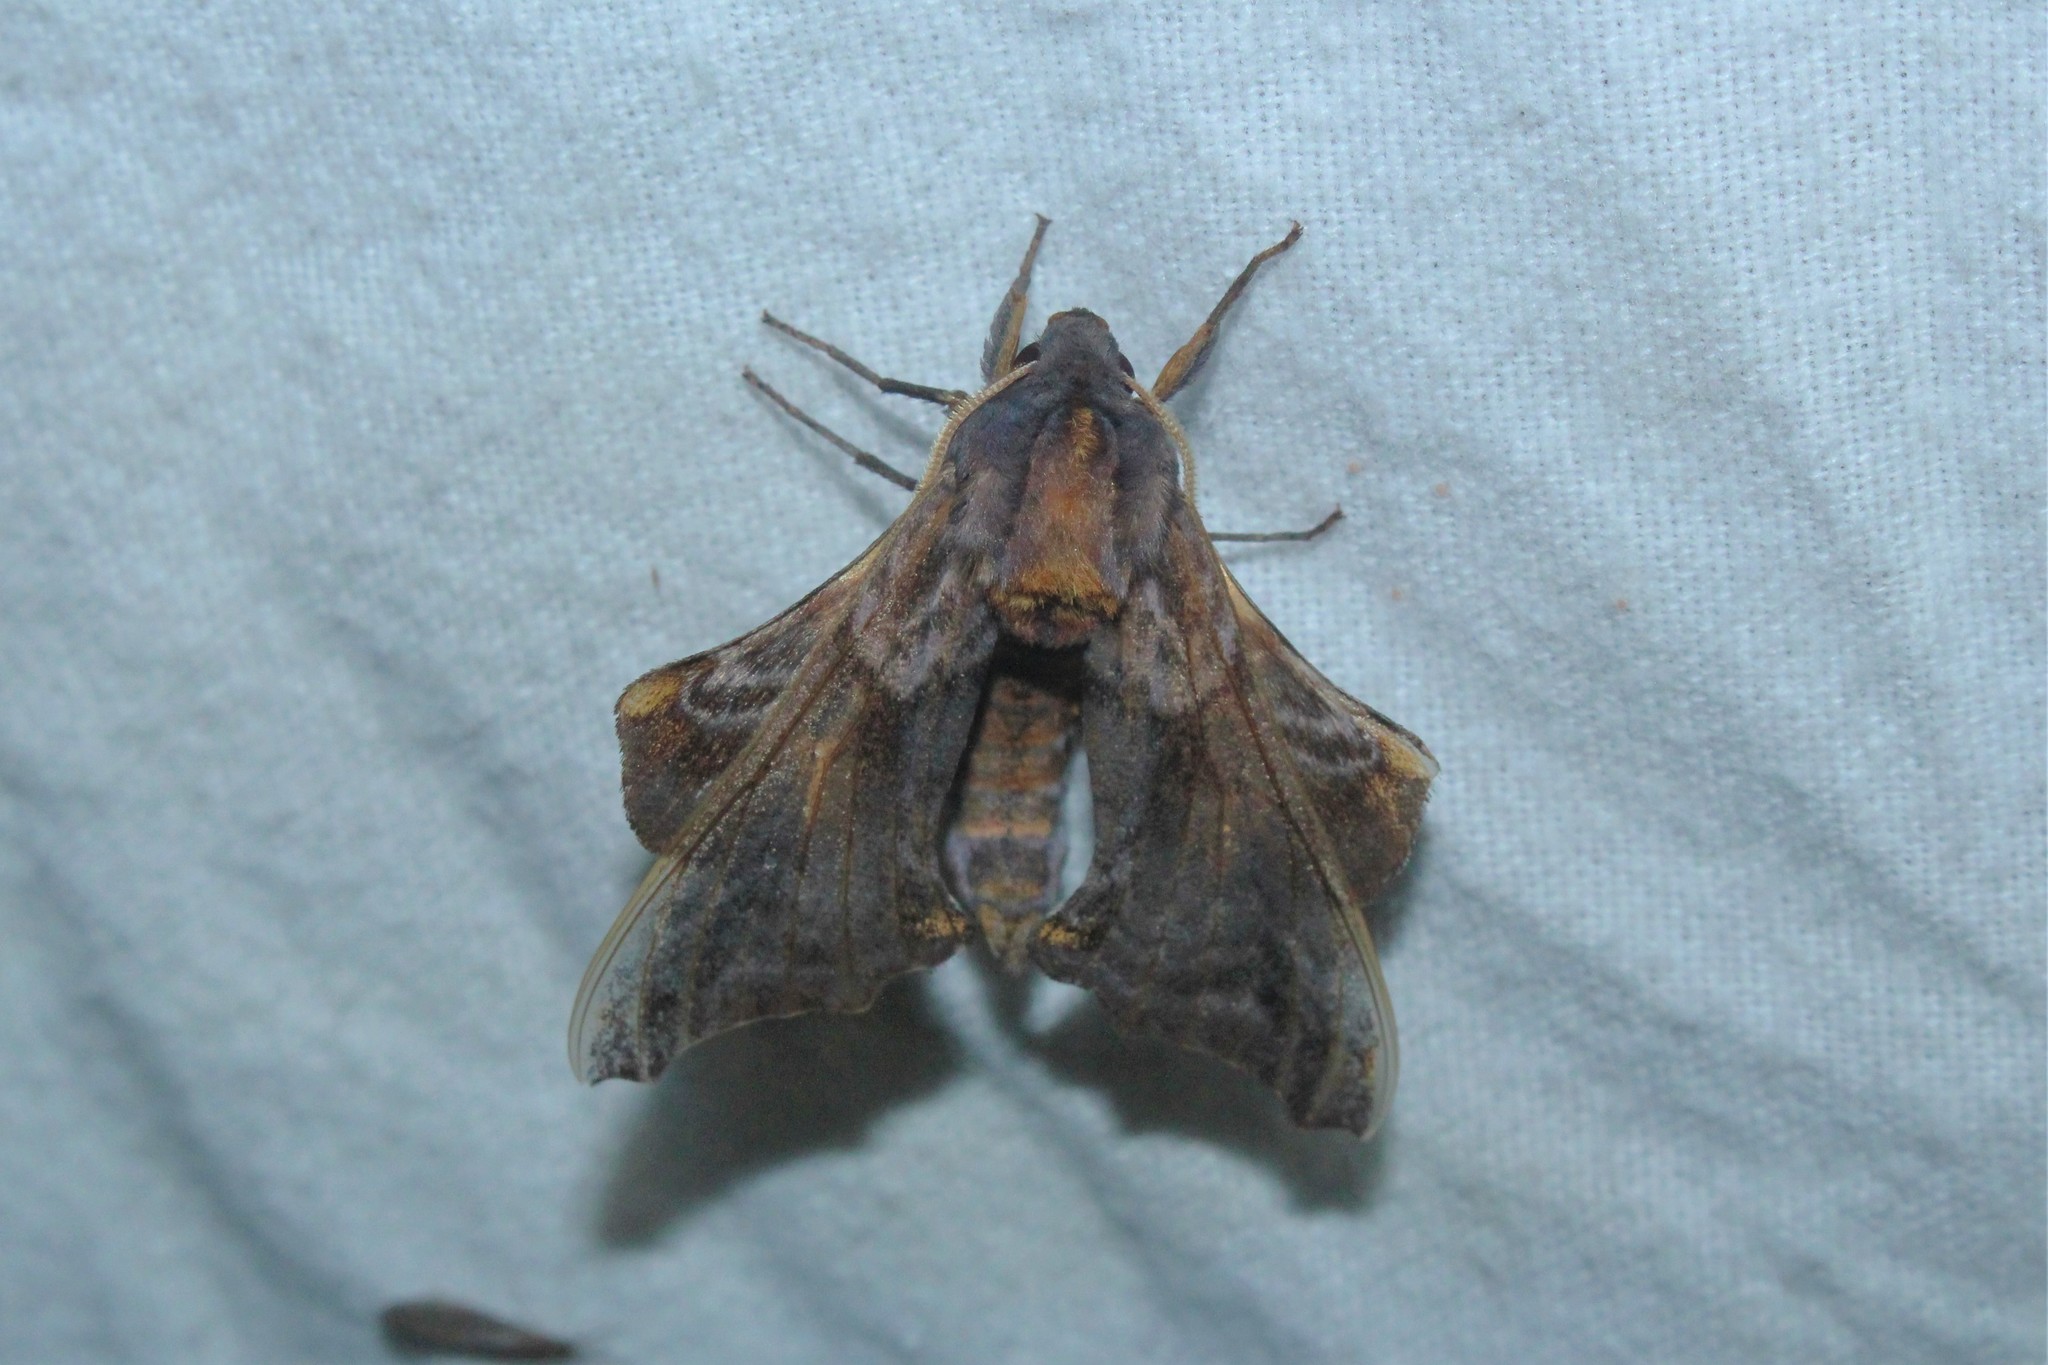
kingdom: Animalia
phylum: Arthropoda
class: Insecta
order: Lepidoptera
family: Sphingidae
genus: Paonias
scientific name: Paonias myops
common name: Small-eyed sphinx
